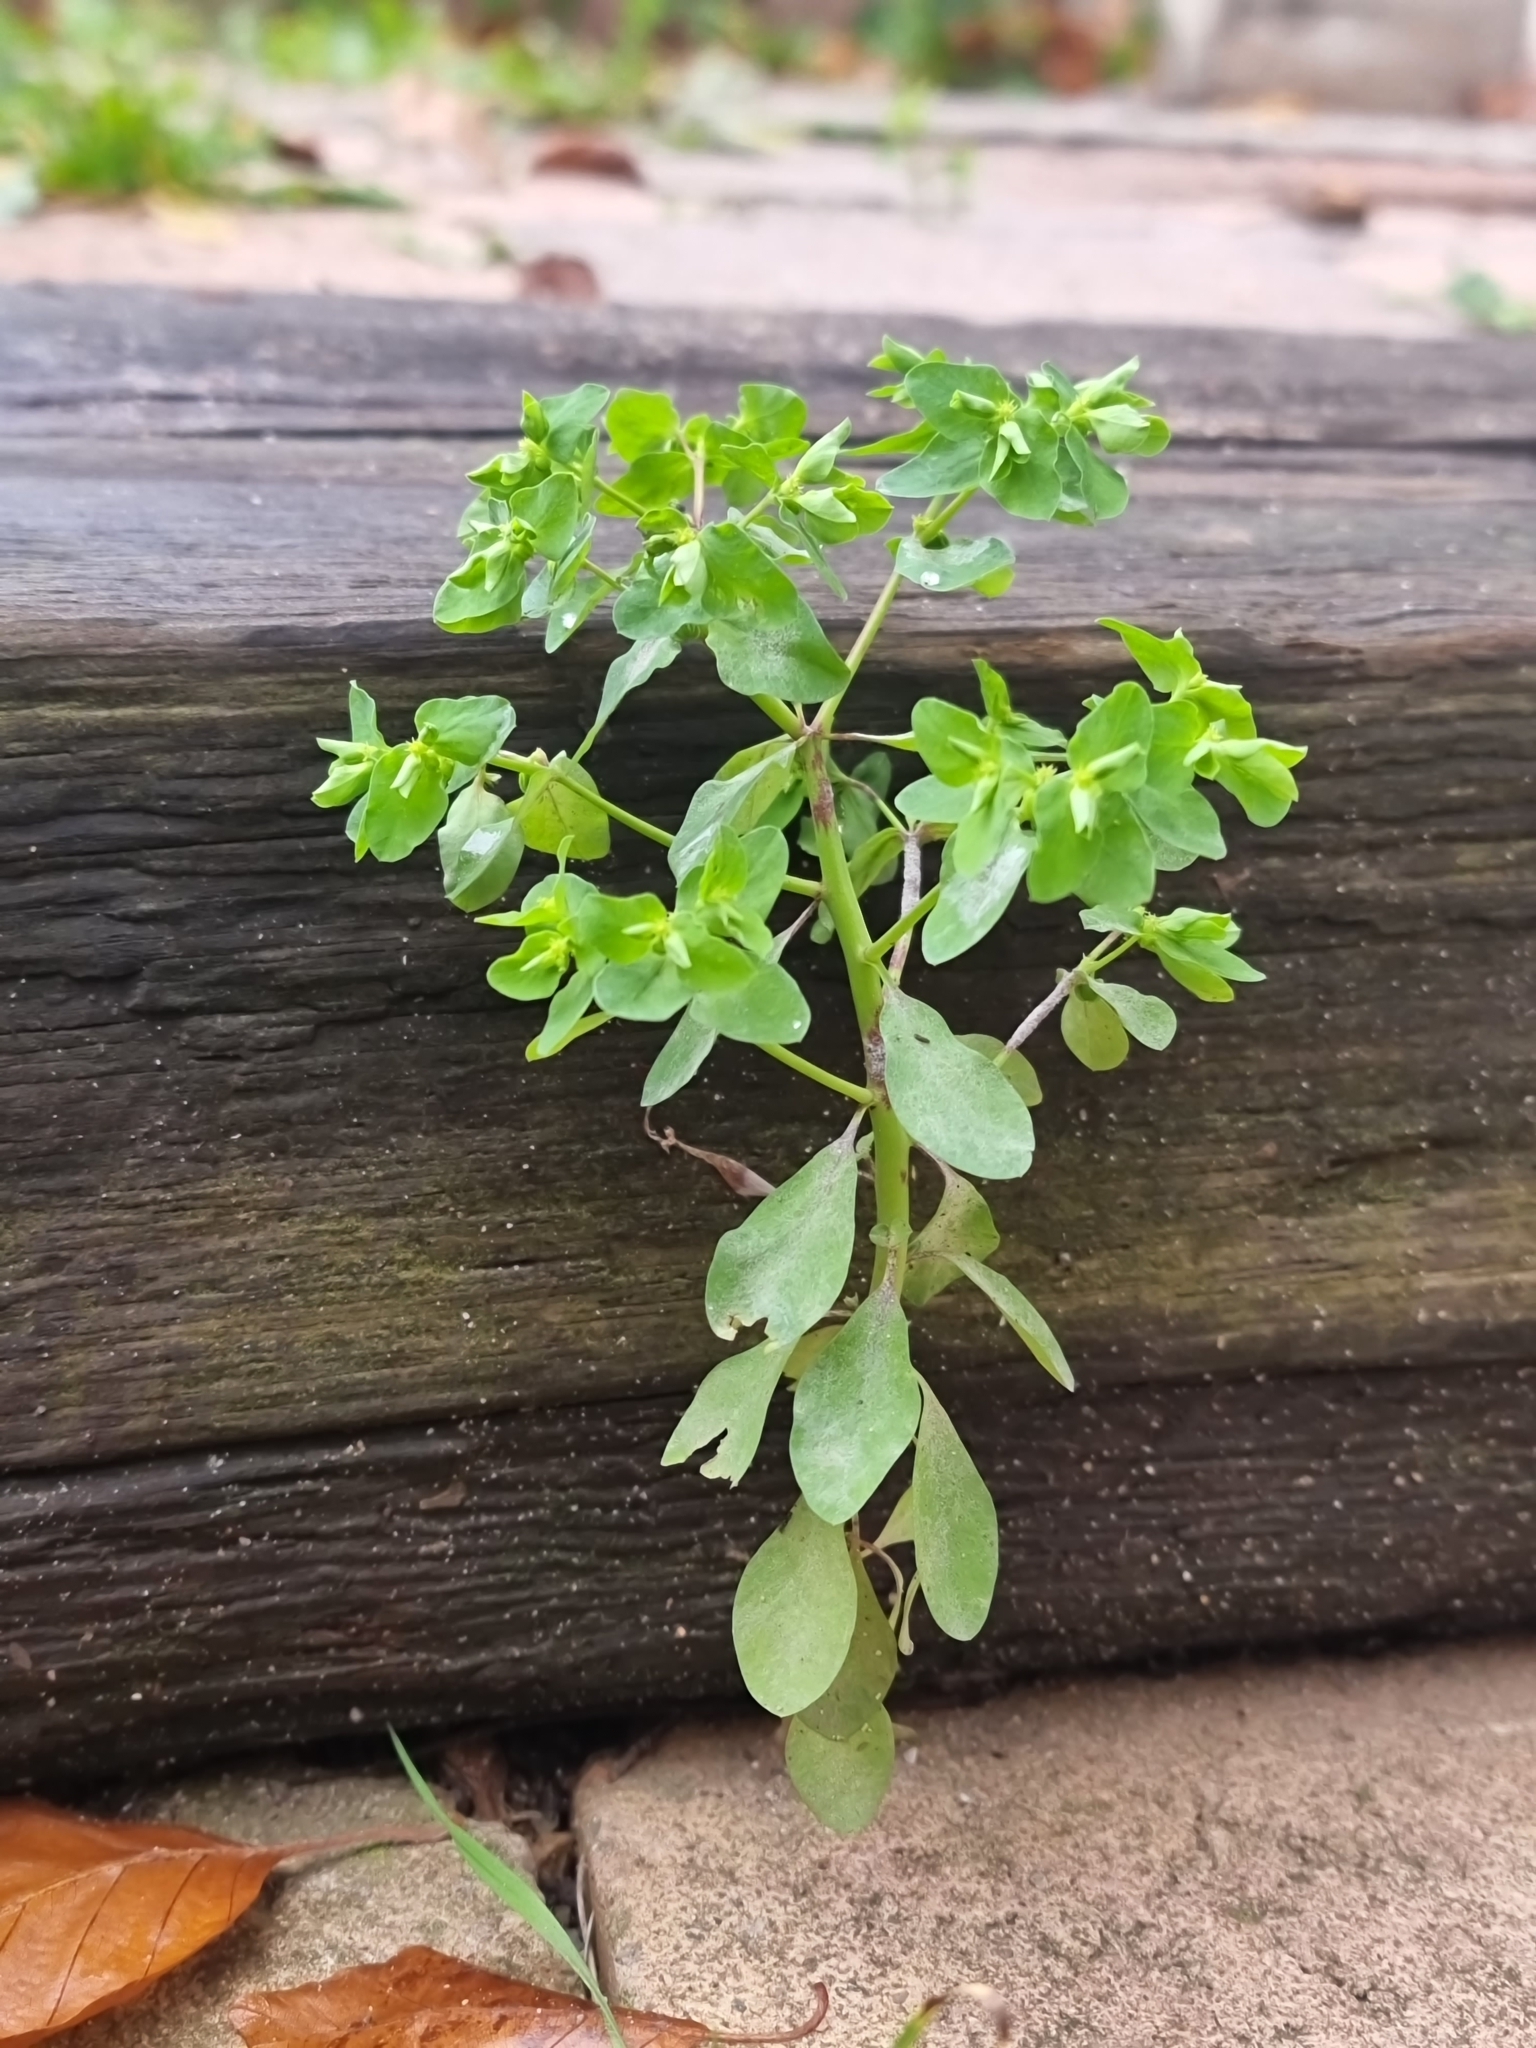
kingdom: Plantae
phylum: Tracheophyta
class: Magnoliopsida
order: Malpighiales
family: Euphorbiaceae
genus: Euphorbia
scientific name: Euphorbia peplus
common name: Petty spurge
